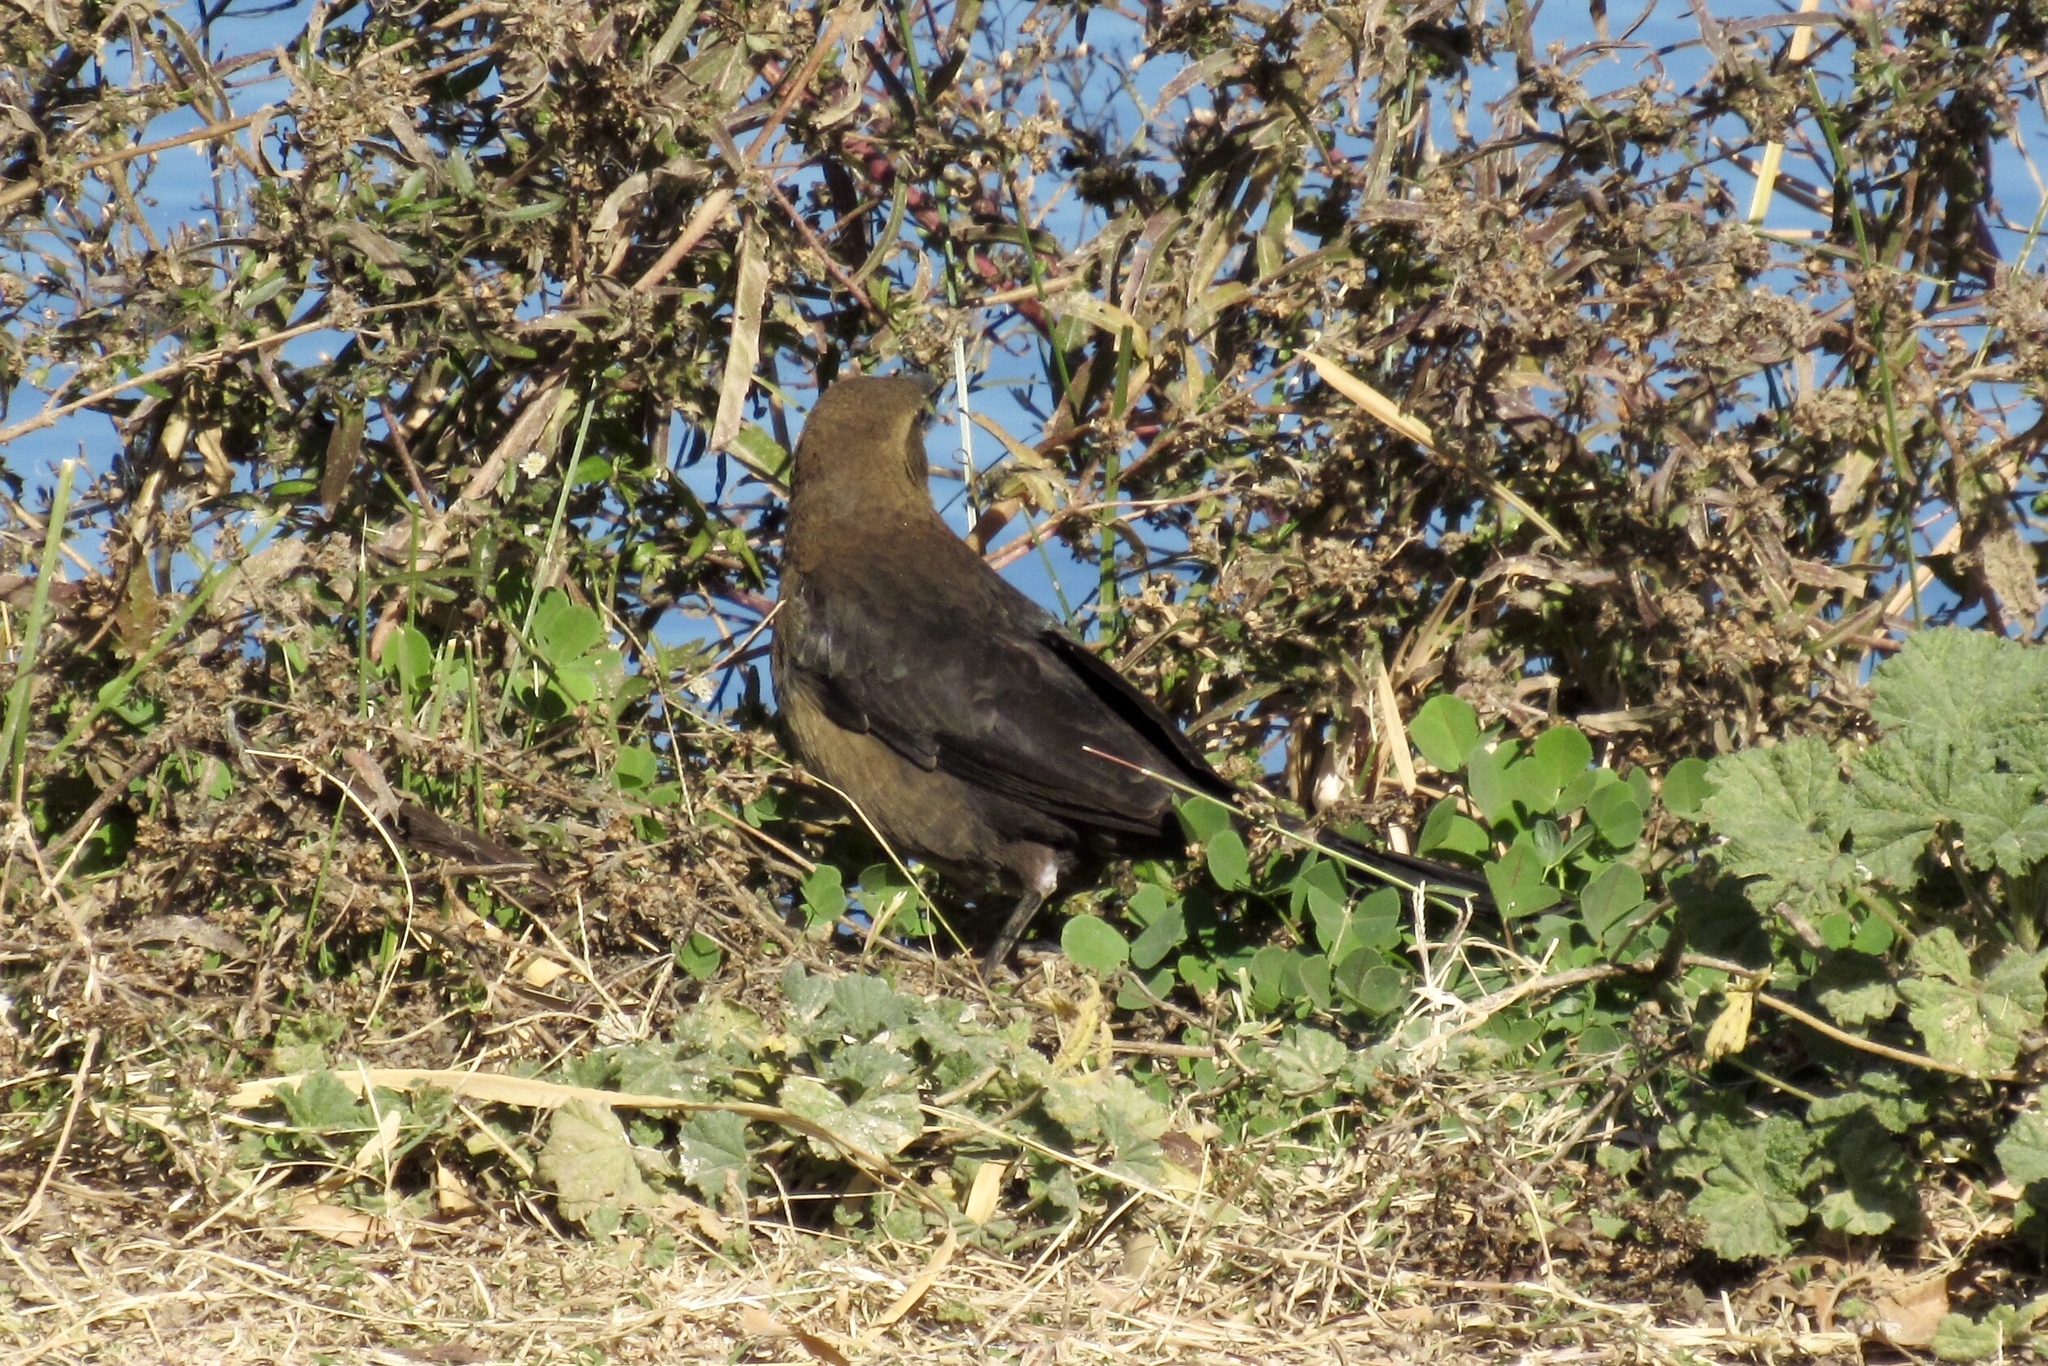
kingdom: Animalia
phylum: Chordata
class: Aves
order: Passeriformes
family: Icteridae
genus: Quiscalus
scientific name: Quiscalus mexicanus
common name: Great-tailed grackle
